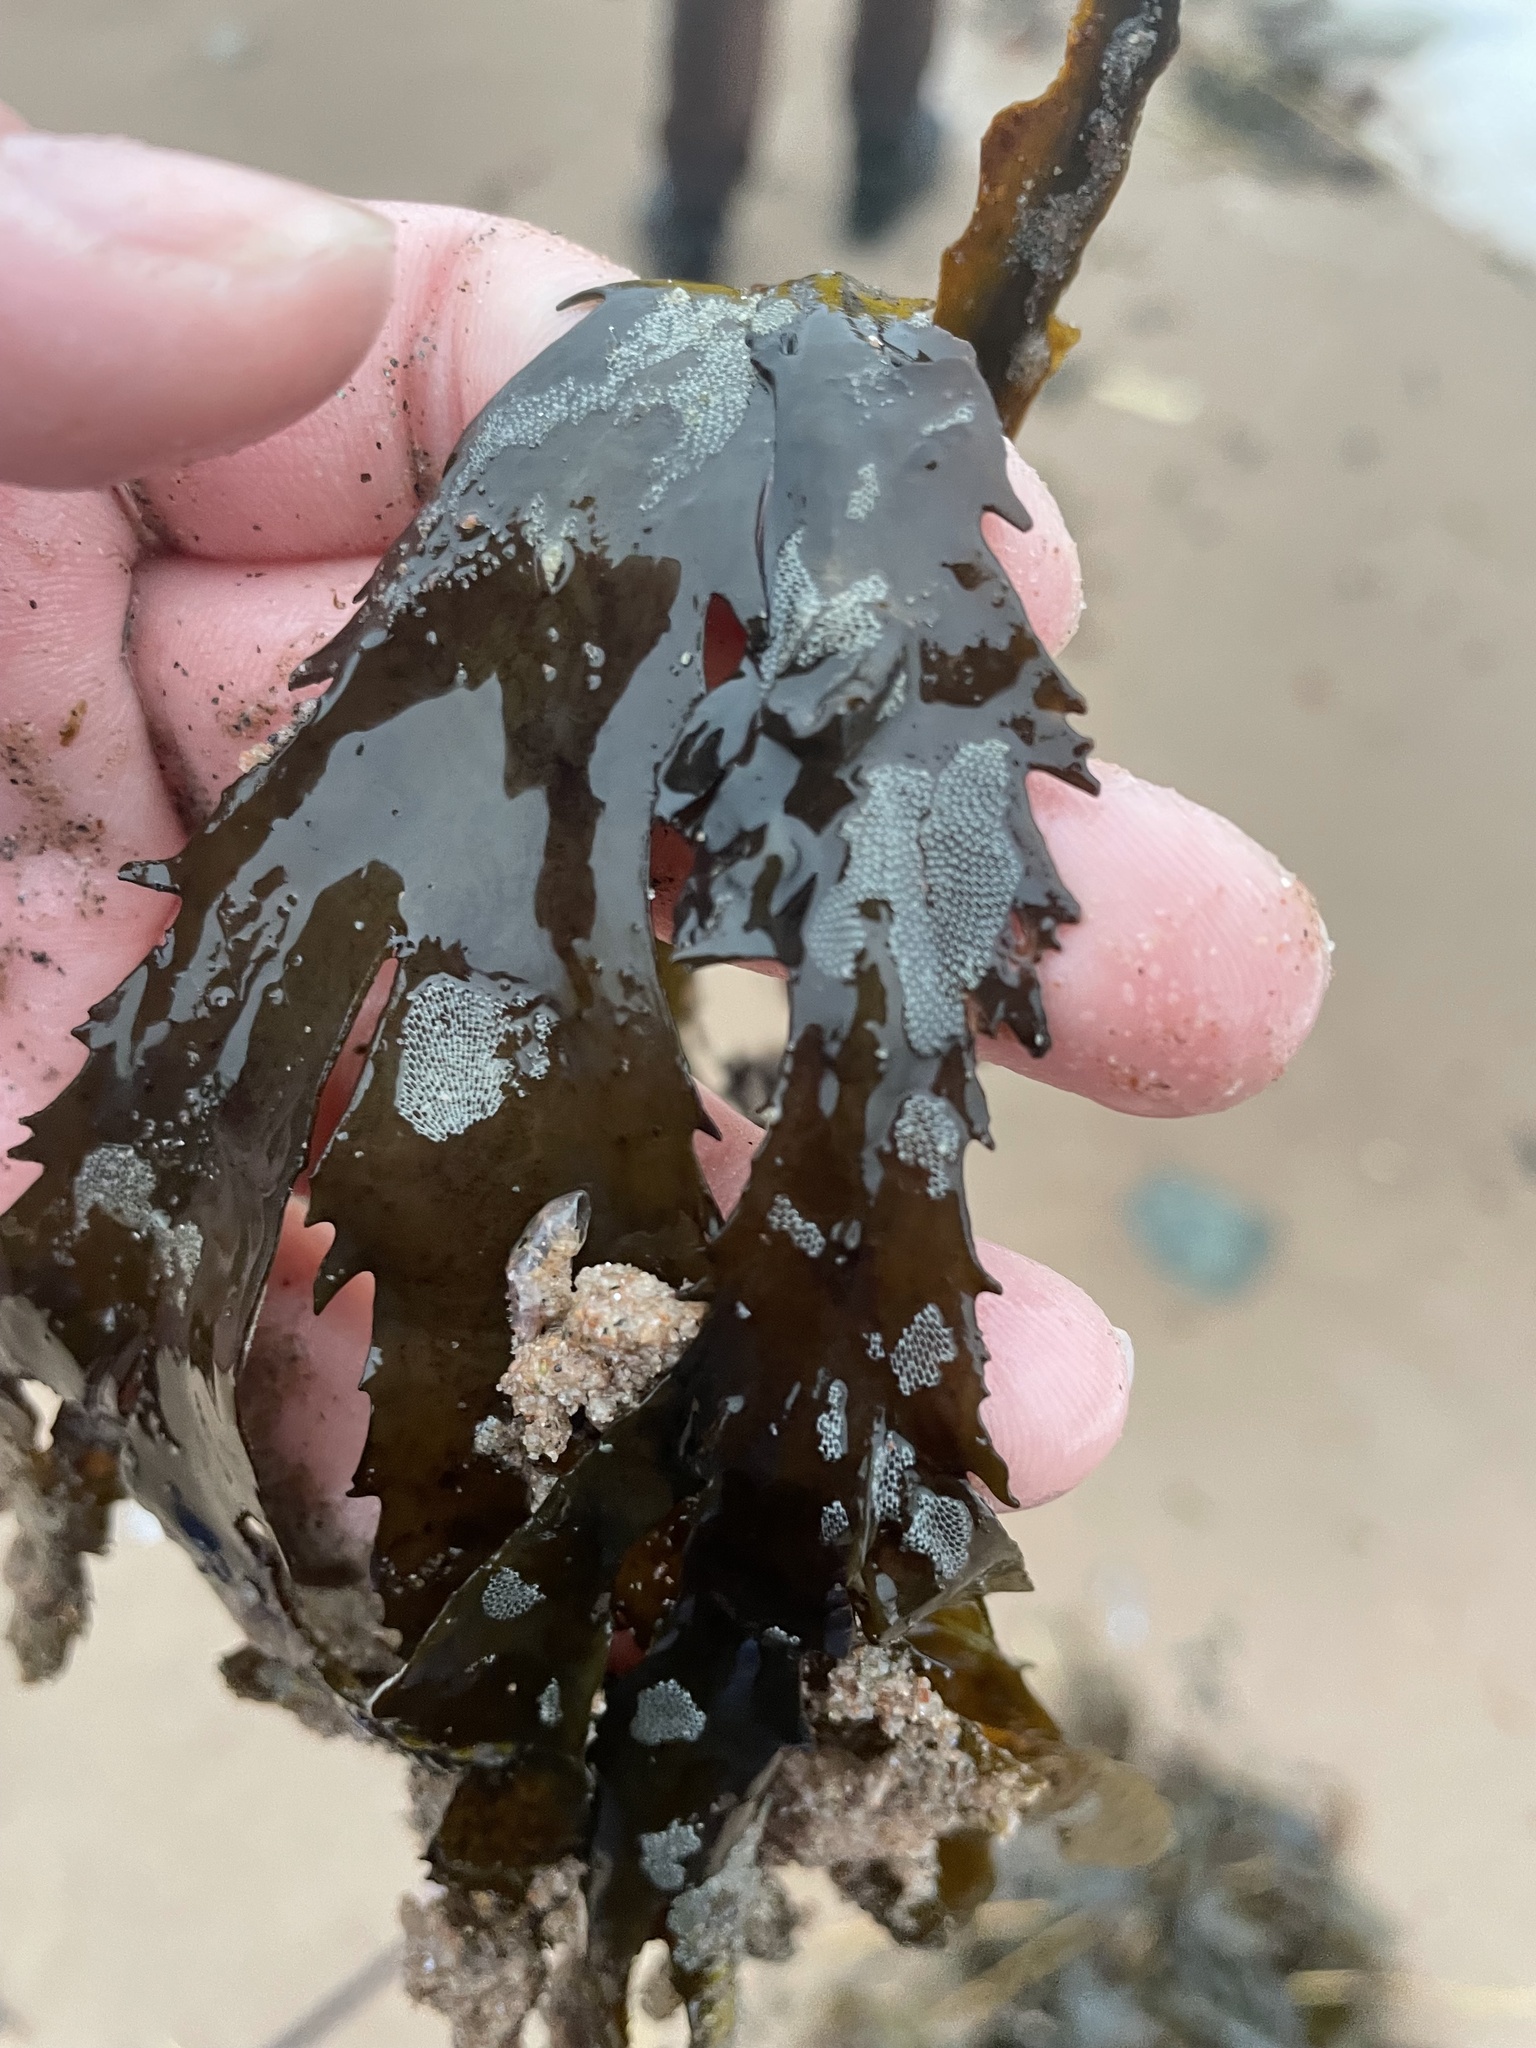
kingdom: Animalia
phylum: Bryozoa
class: Gymnolaemata
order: Cheilostomatida
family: Membraniporidae
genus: Membranipora
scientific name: Membranipora membranacea
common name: Sea mat
